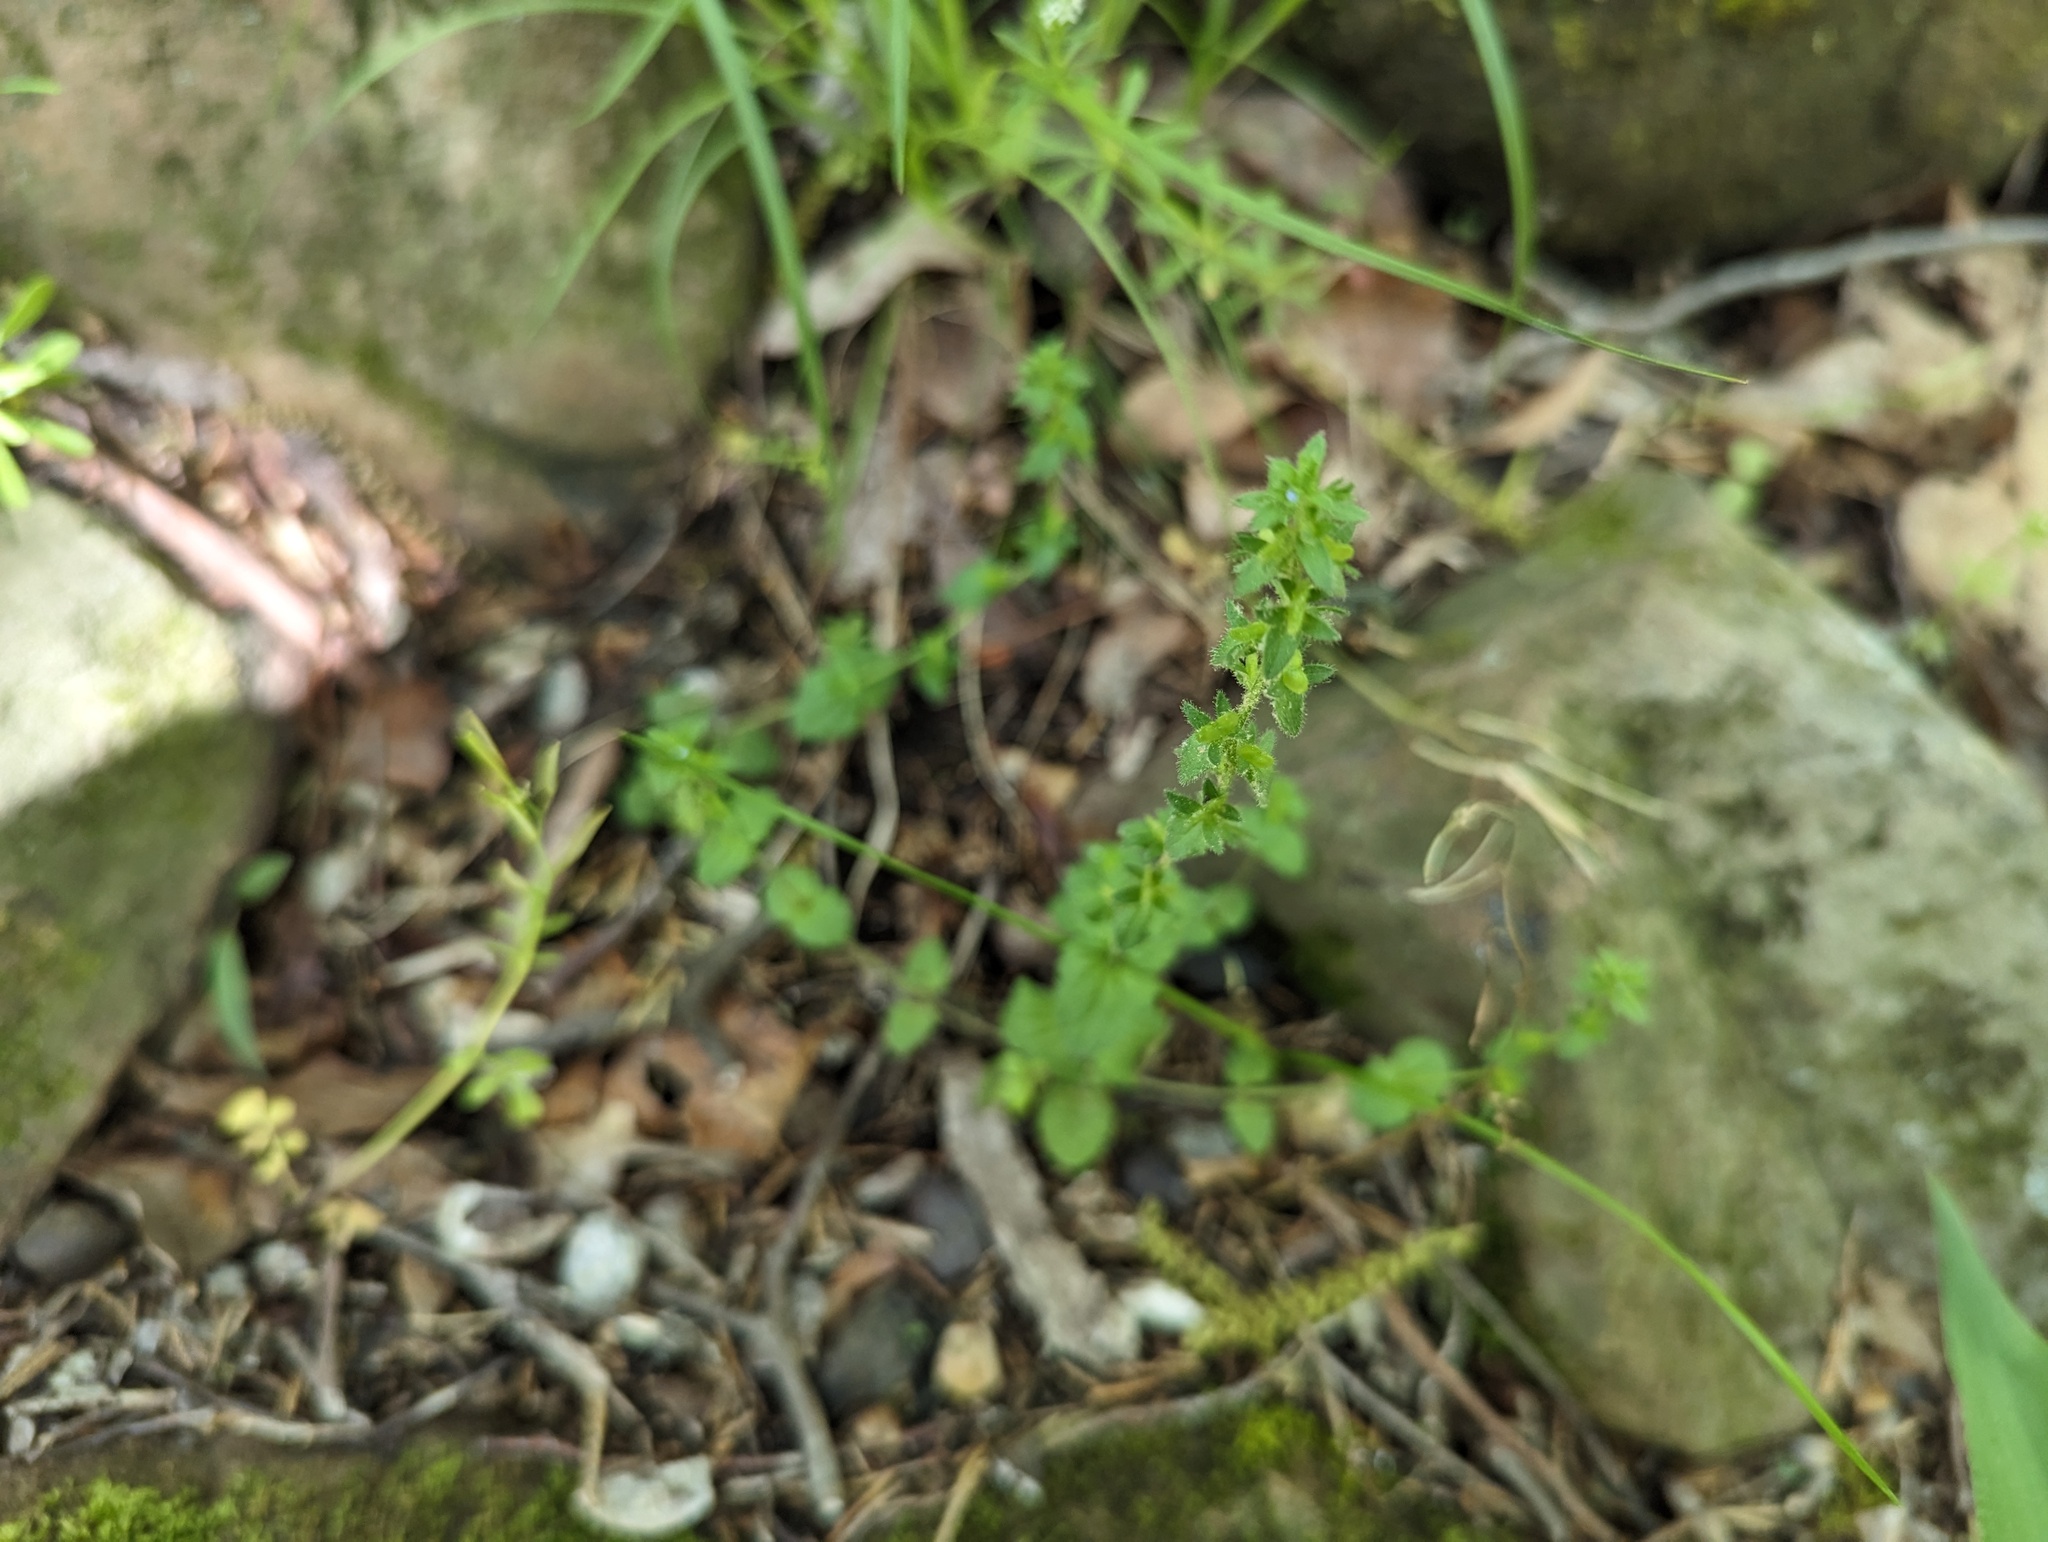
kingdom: Plantae
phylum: Tracheophyta
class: Magnoliopsida
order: Lamiales
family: Plantaginaceae
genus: Veronica
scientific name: Veronica arvensis
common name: Corn speedwell
